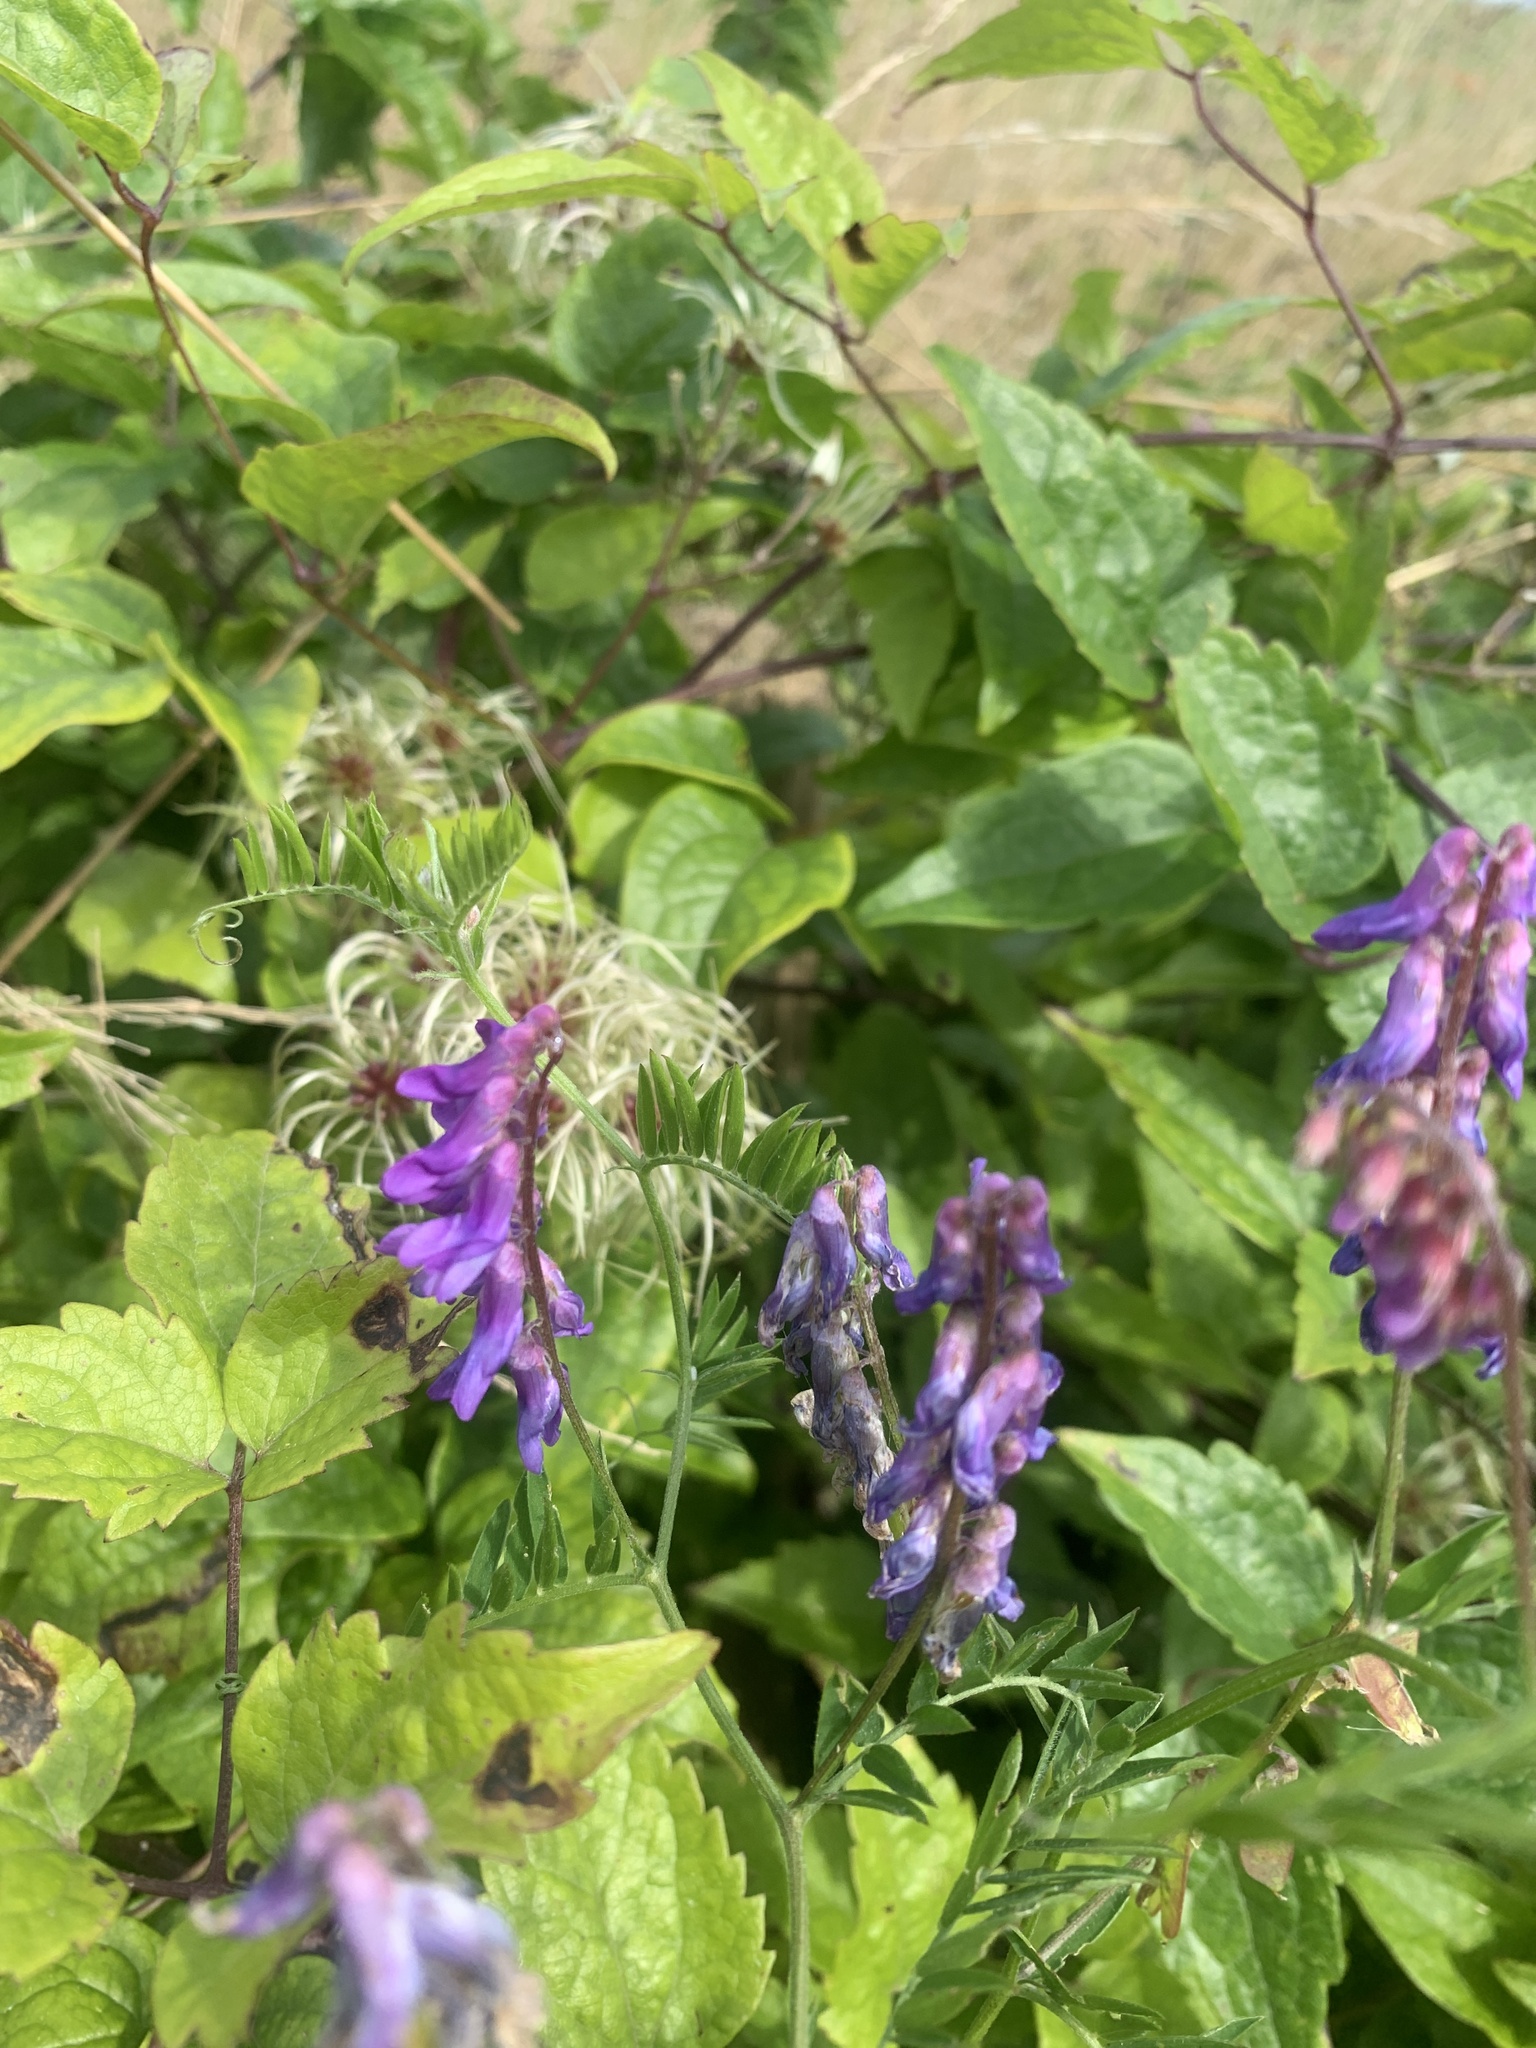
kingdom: Plantae
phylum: Tracheophyta
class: Magnoliopsida
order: Fabales
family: Fabaceae
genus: Vicia
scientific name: Vicia cracca
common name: Bird vetch
